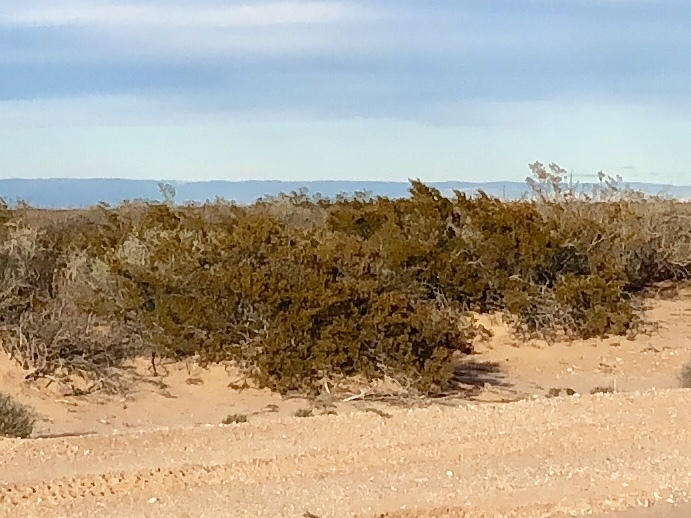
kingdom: Plantae
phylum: Tracheophyta
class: Magnoliopsida
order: Zygophyllales
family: Zygophyllaceae
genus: Larrea
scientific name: Larrea tridentata
